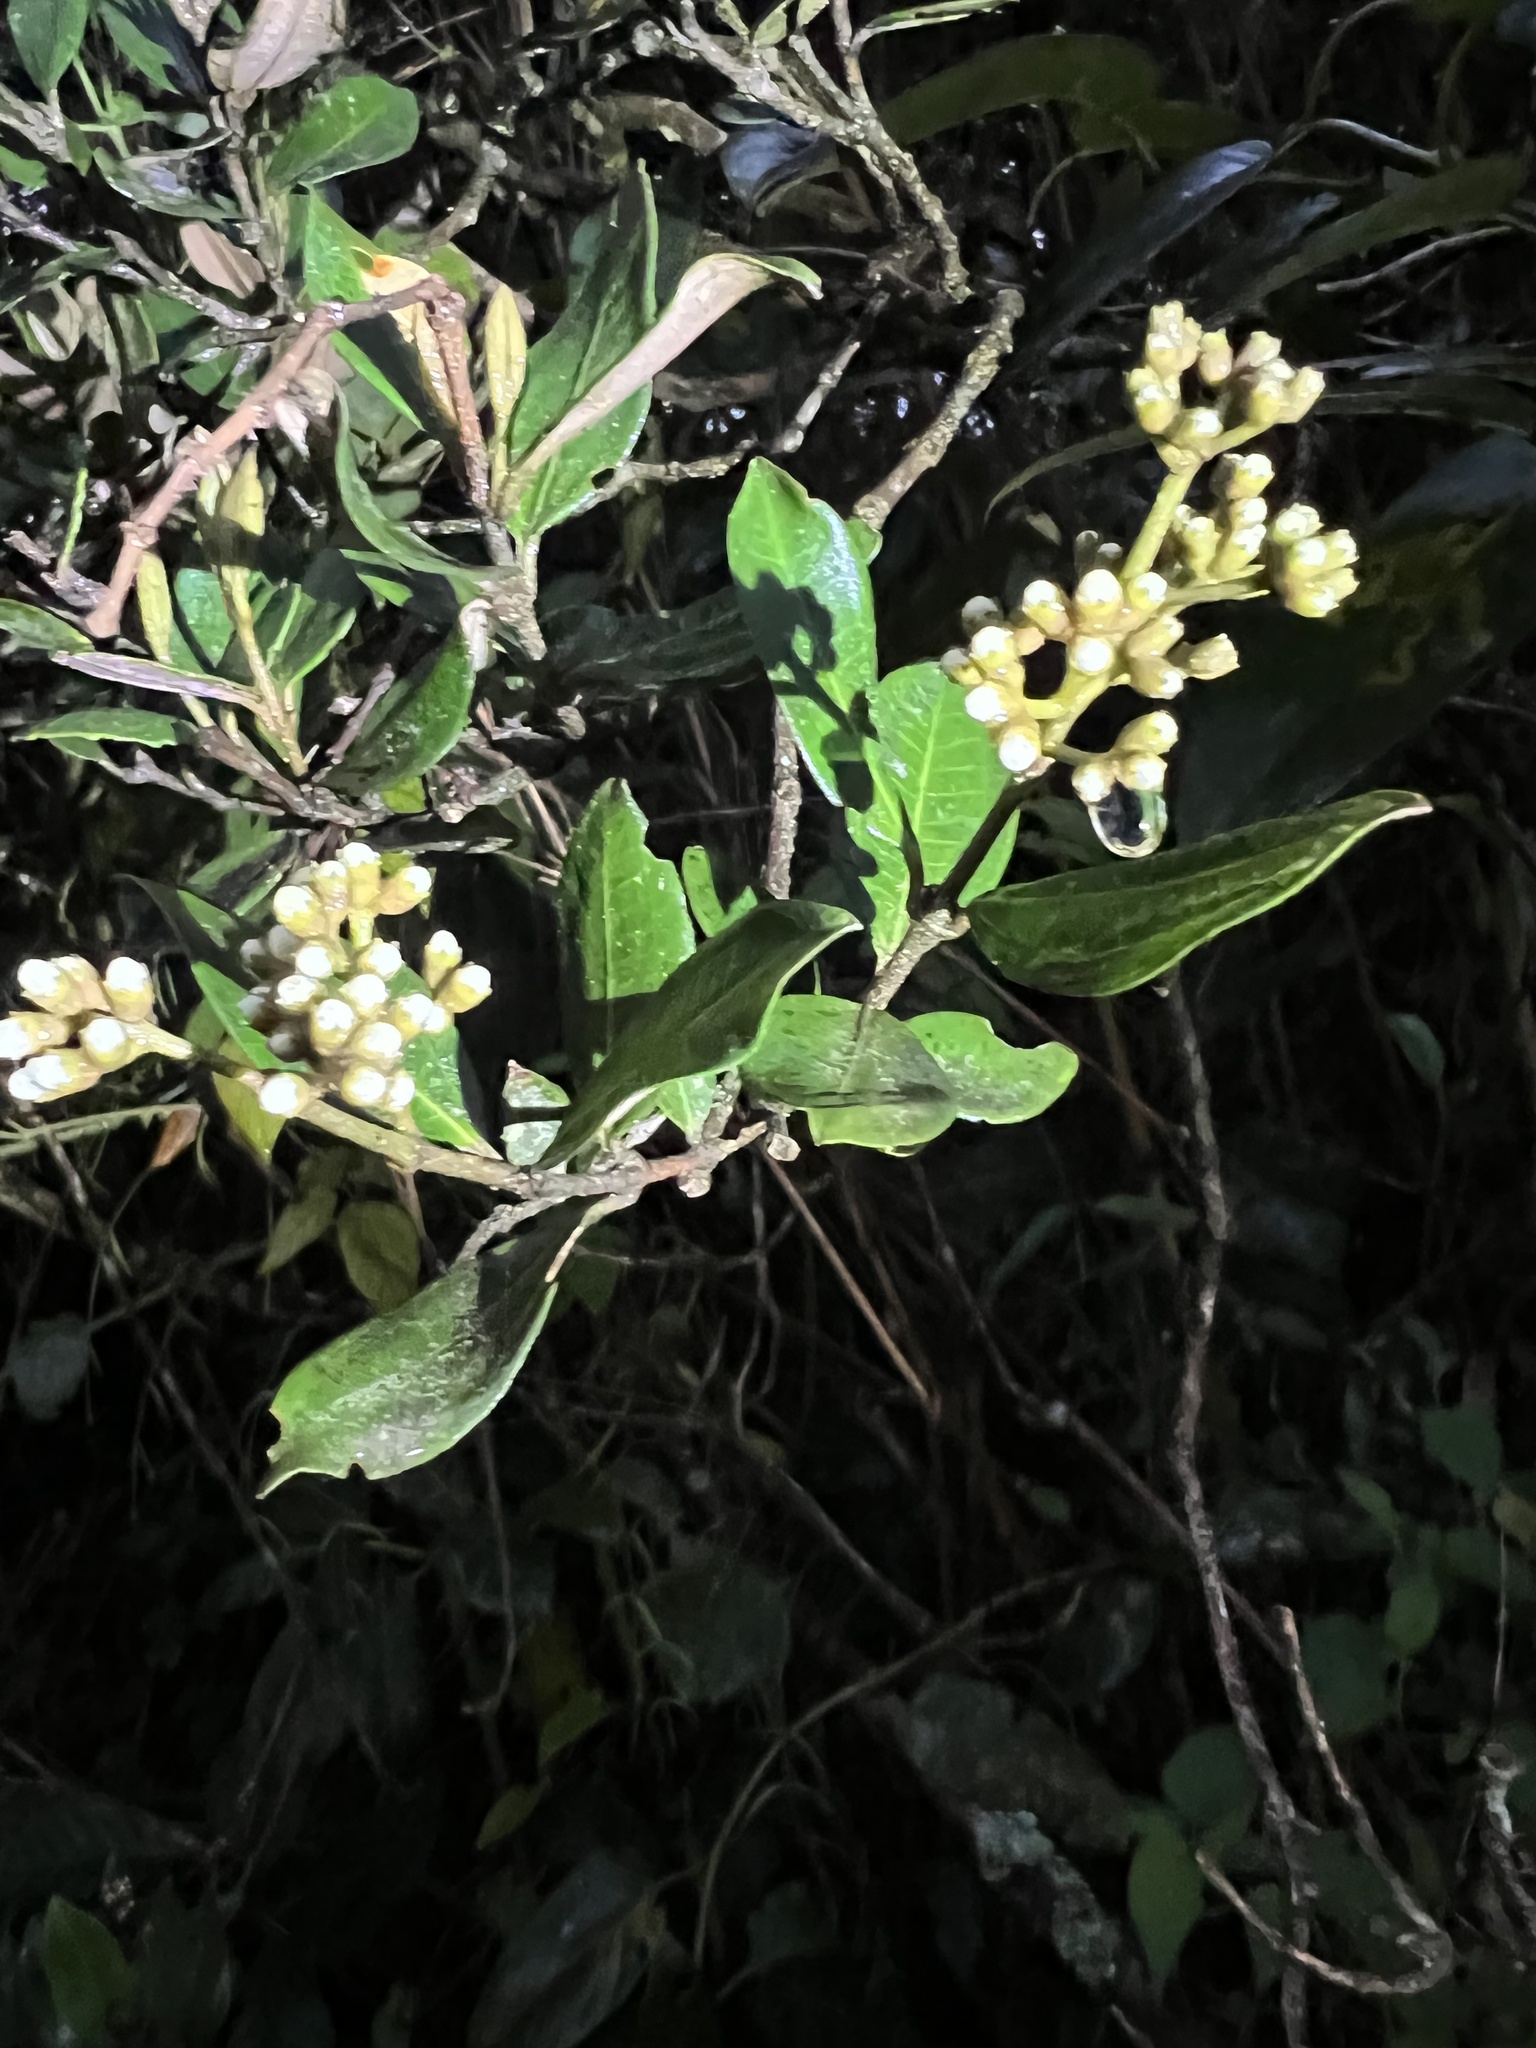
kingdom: Plantae
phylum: Tracheophyta
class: Magnoliopsida
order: Myrtales
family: Melastomataceae
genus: Miconia
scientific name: Miconia squamulosa
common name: Squamulose maya
